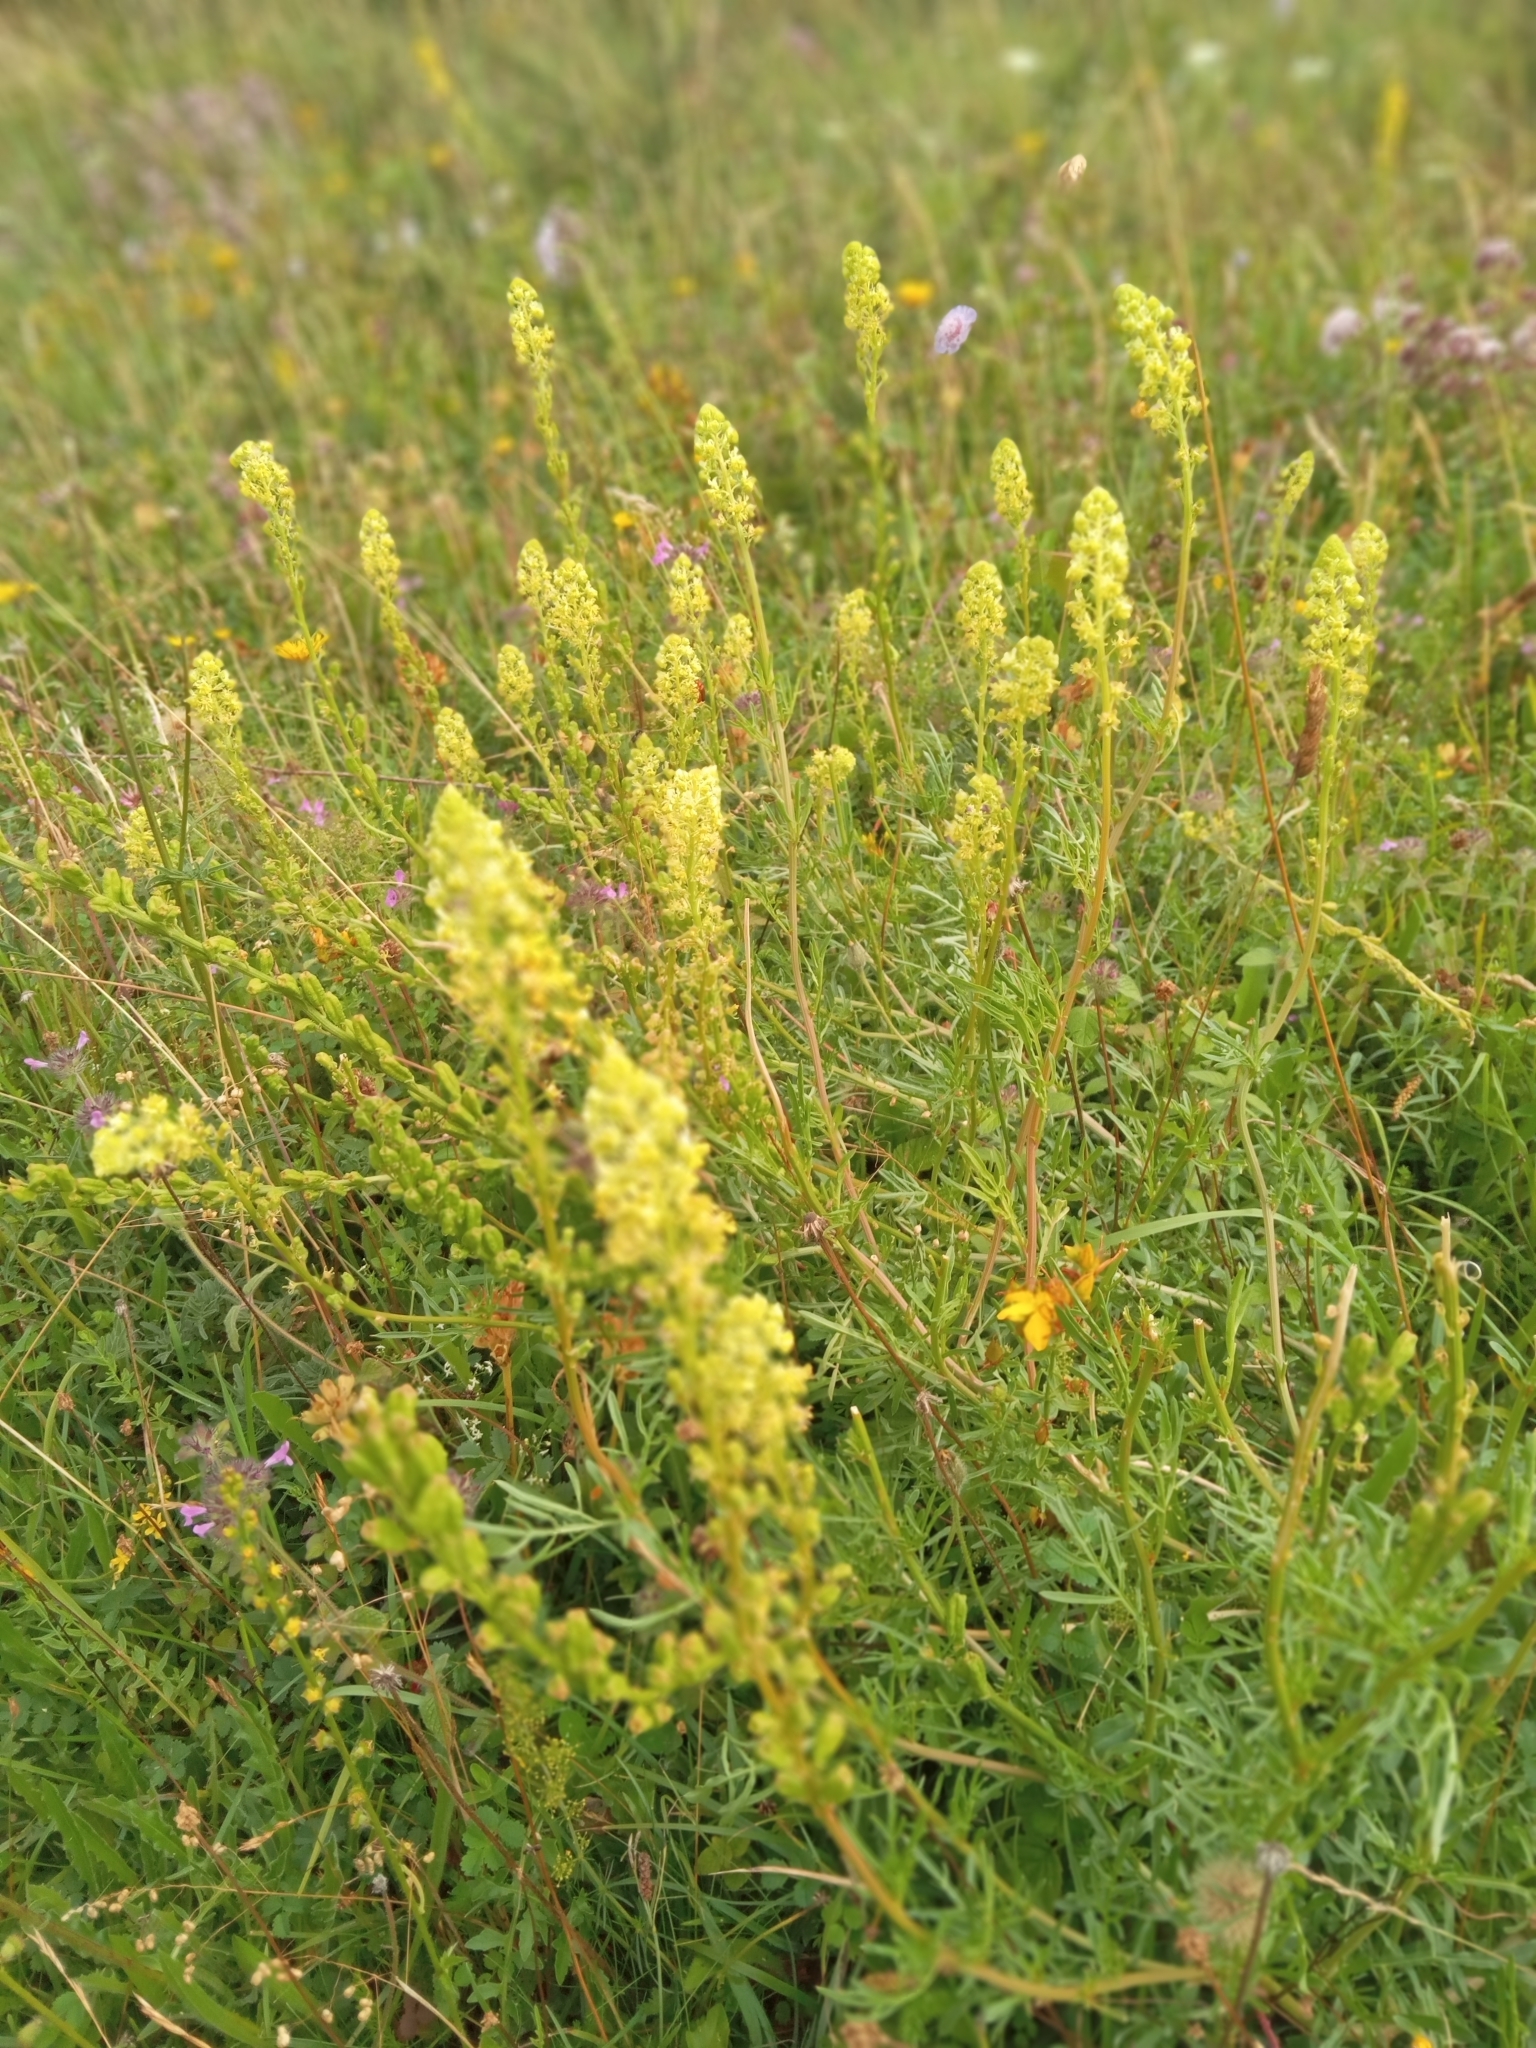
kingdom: Plantae
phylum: Tracheophyta
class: Magnoliopsida
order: Brassicales
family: Resedaceae
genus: Reseda
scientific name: Reseda lutea
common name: Wild mignonette
